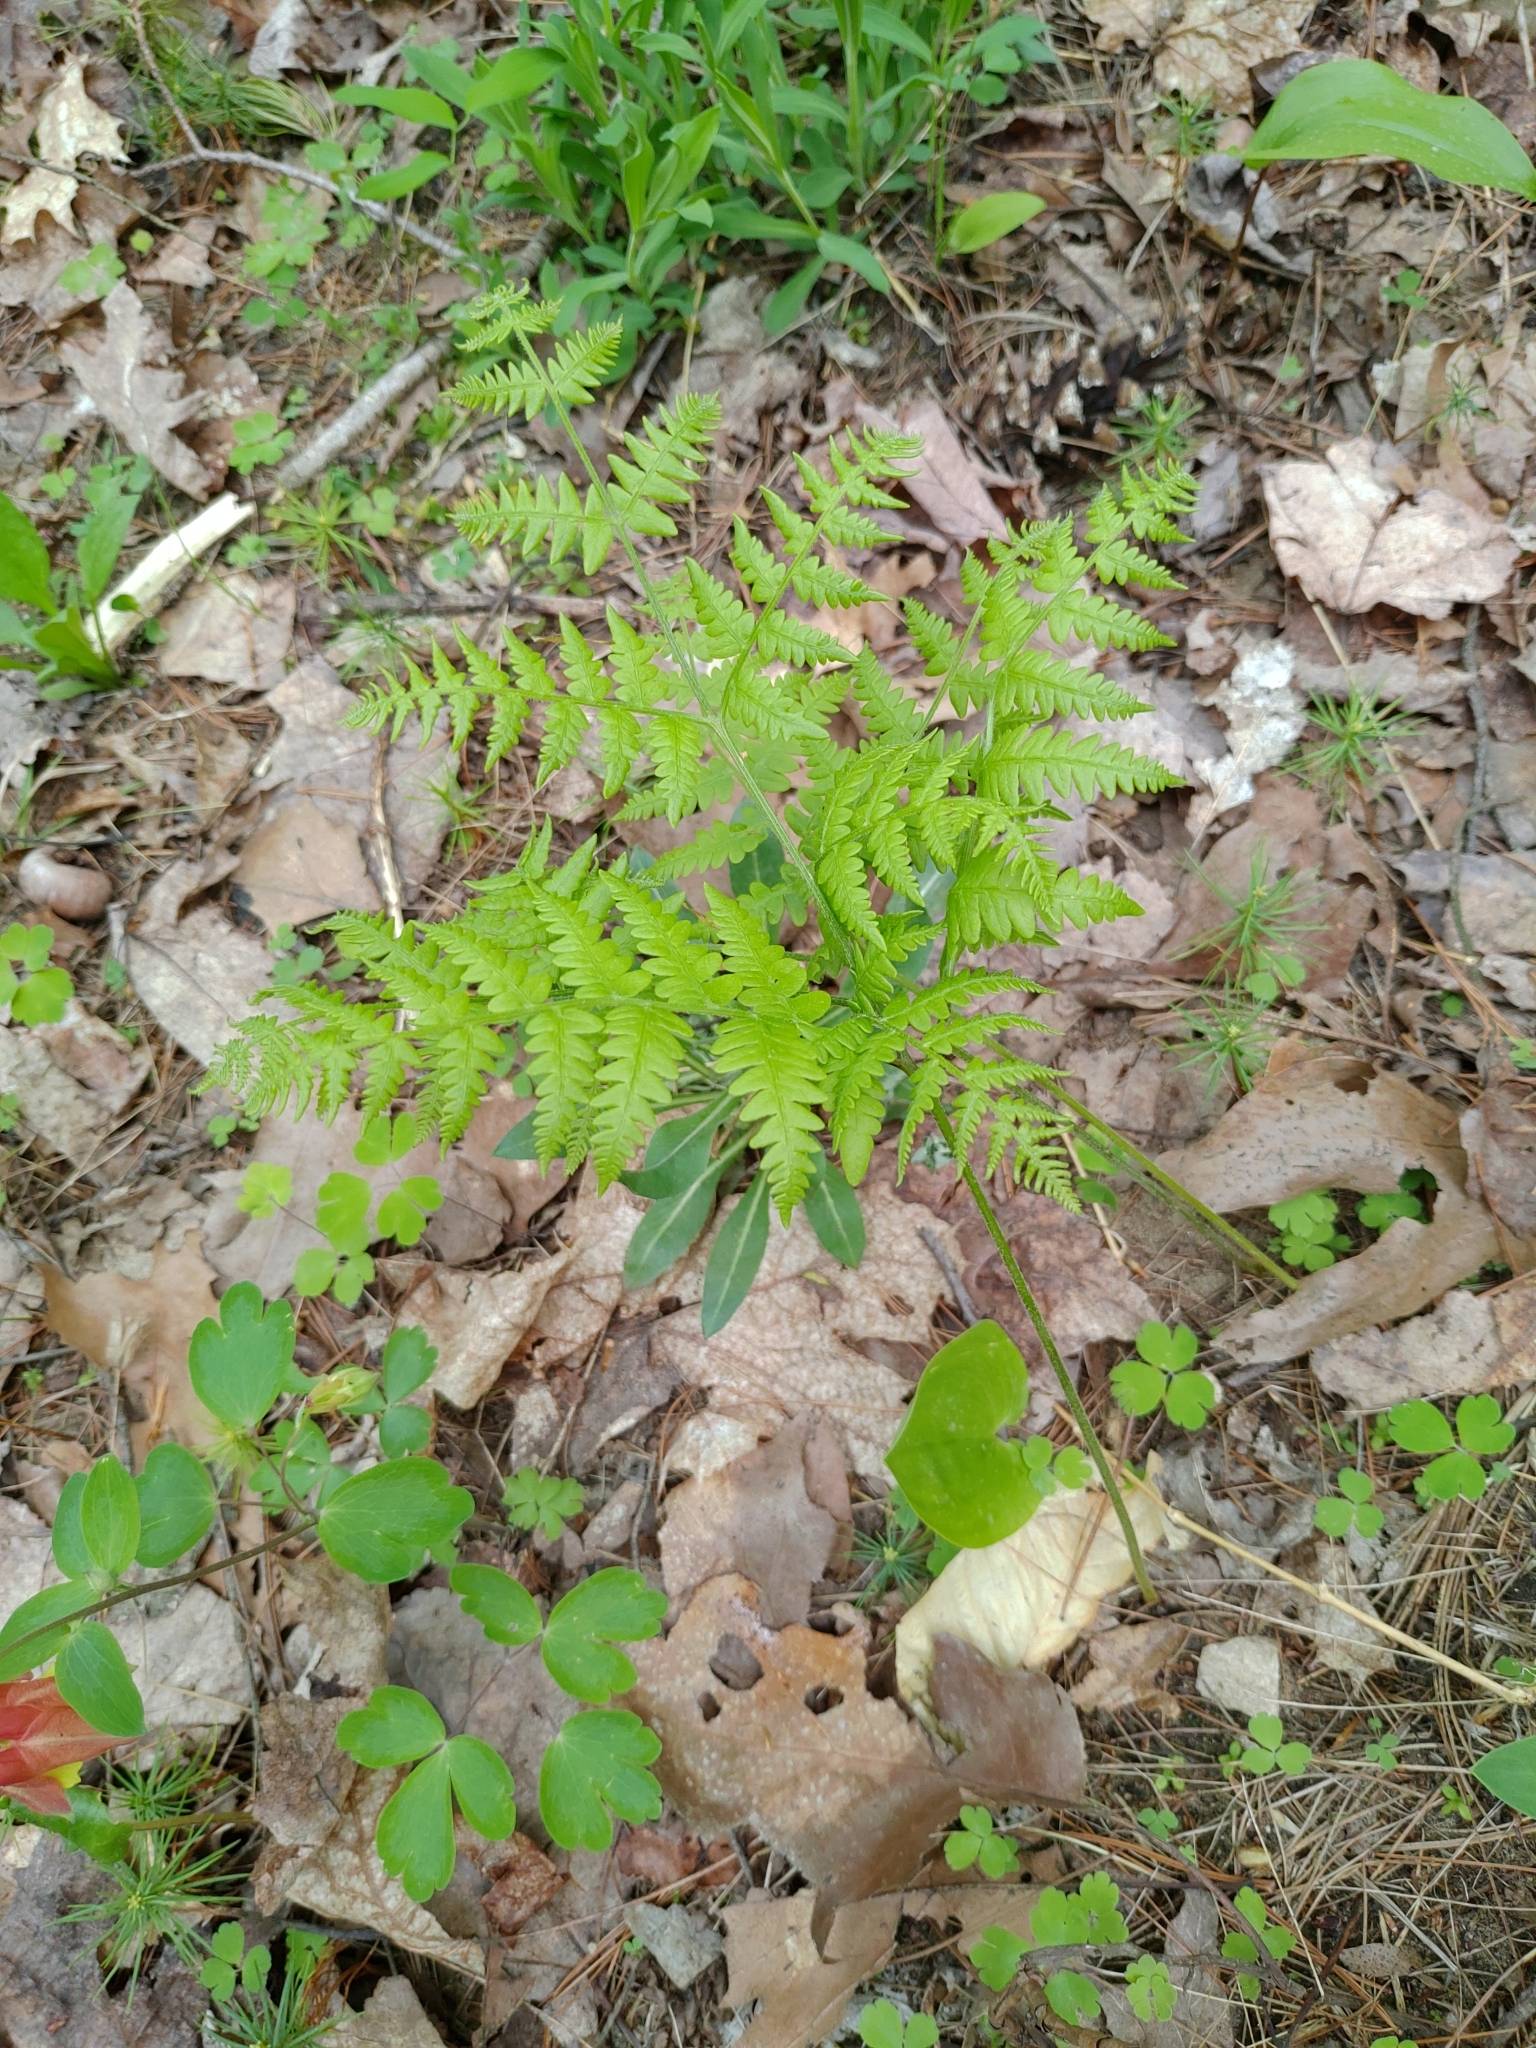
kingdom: Plantae
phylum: Tracheophyta
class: Polypodiopsida
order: Polypodiales
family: Dennstaedtiaceae
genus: Pteridium
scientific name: Pteridium aquilinum
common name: Bracken
